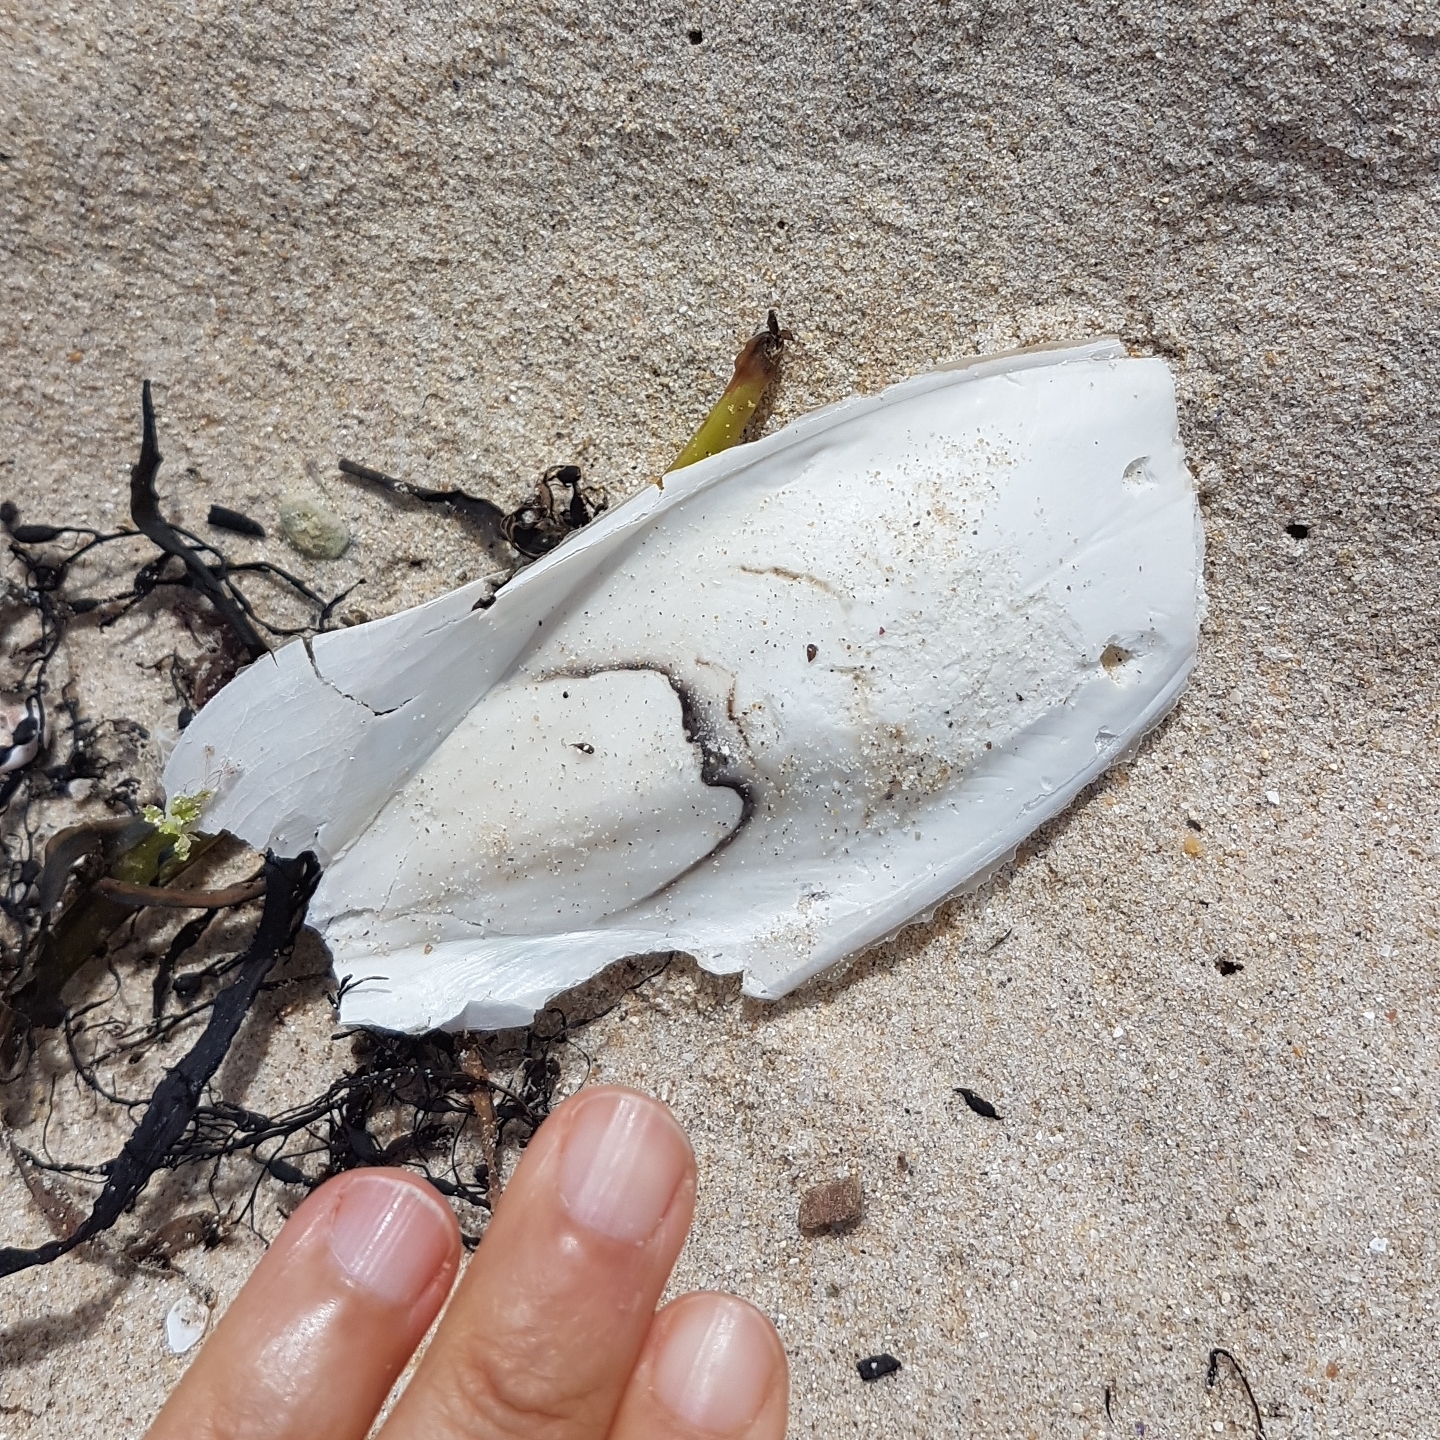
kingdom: Animalia
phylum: Mollusca
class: Cephalopoda
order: Sepiida
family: Sepiidae
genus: Sepia
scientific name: Sepia officinalis
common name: Common cuttlefish
